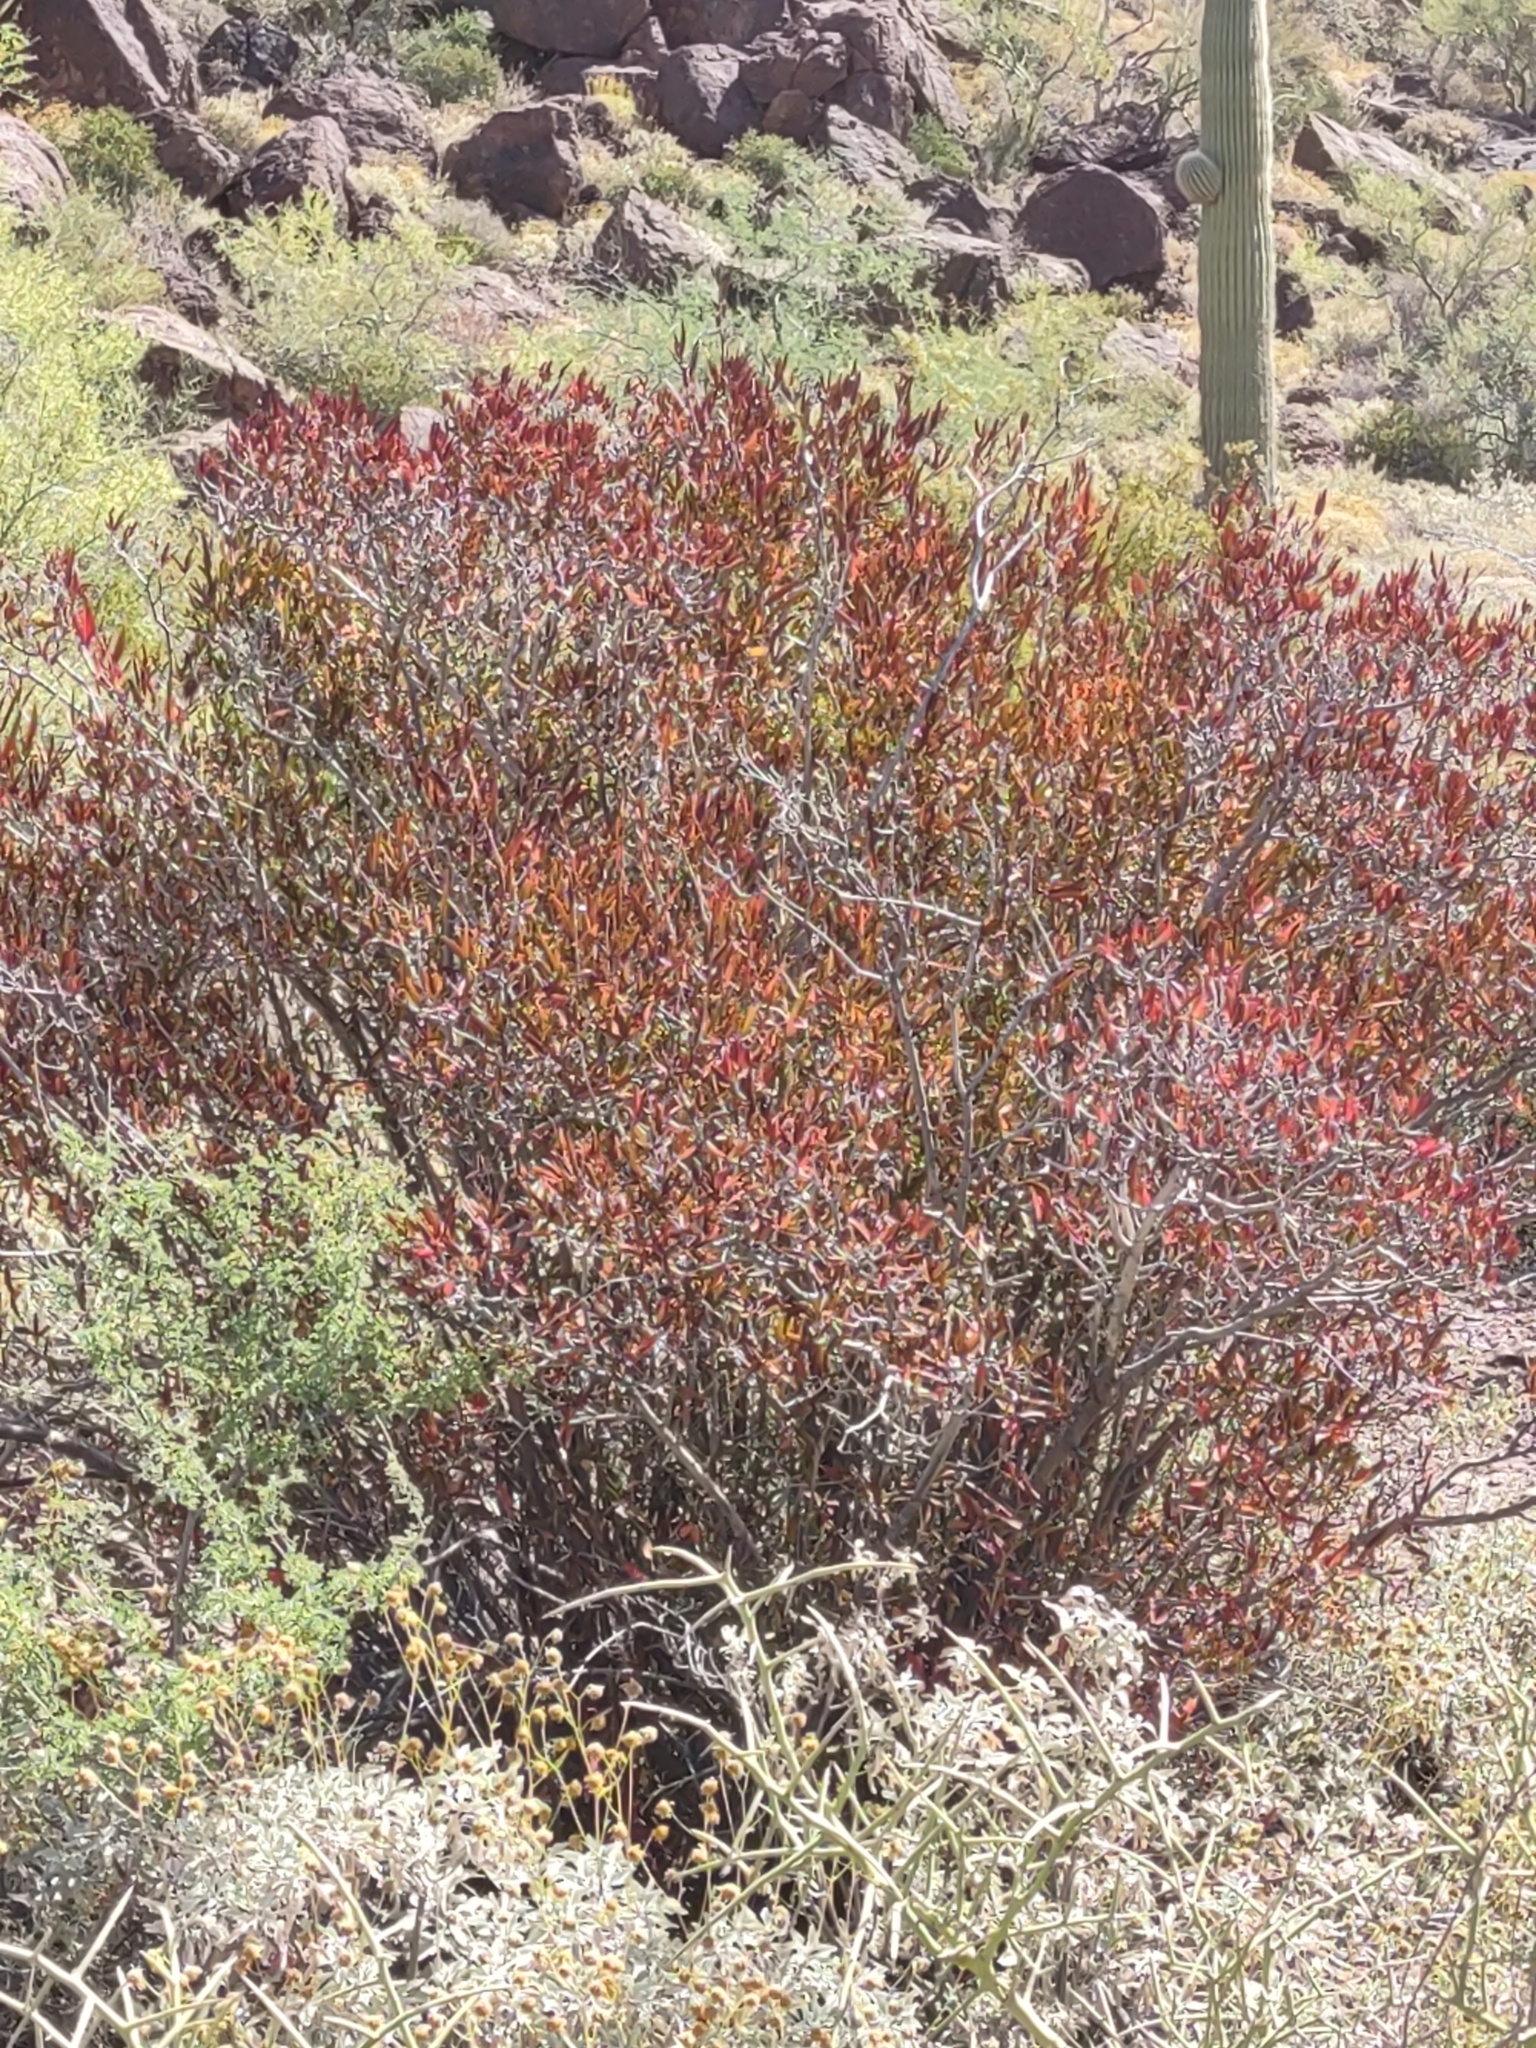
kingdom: Plantae
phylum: Tracheophyta
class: Magnoliopsida
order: Malpighiales
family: Euphorbiaceae
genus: Pleradenophora
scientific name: Pleradenophora bilocularis
